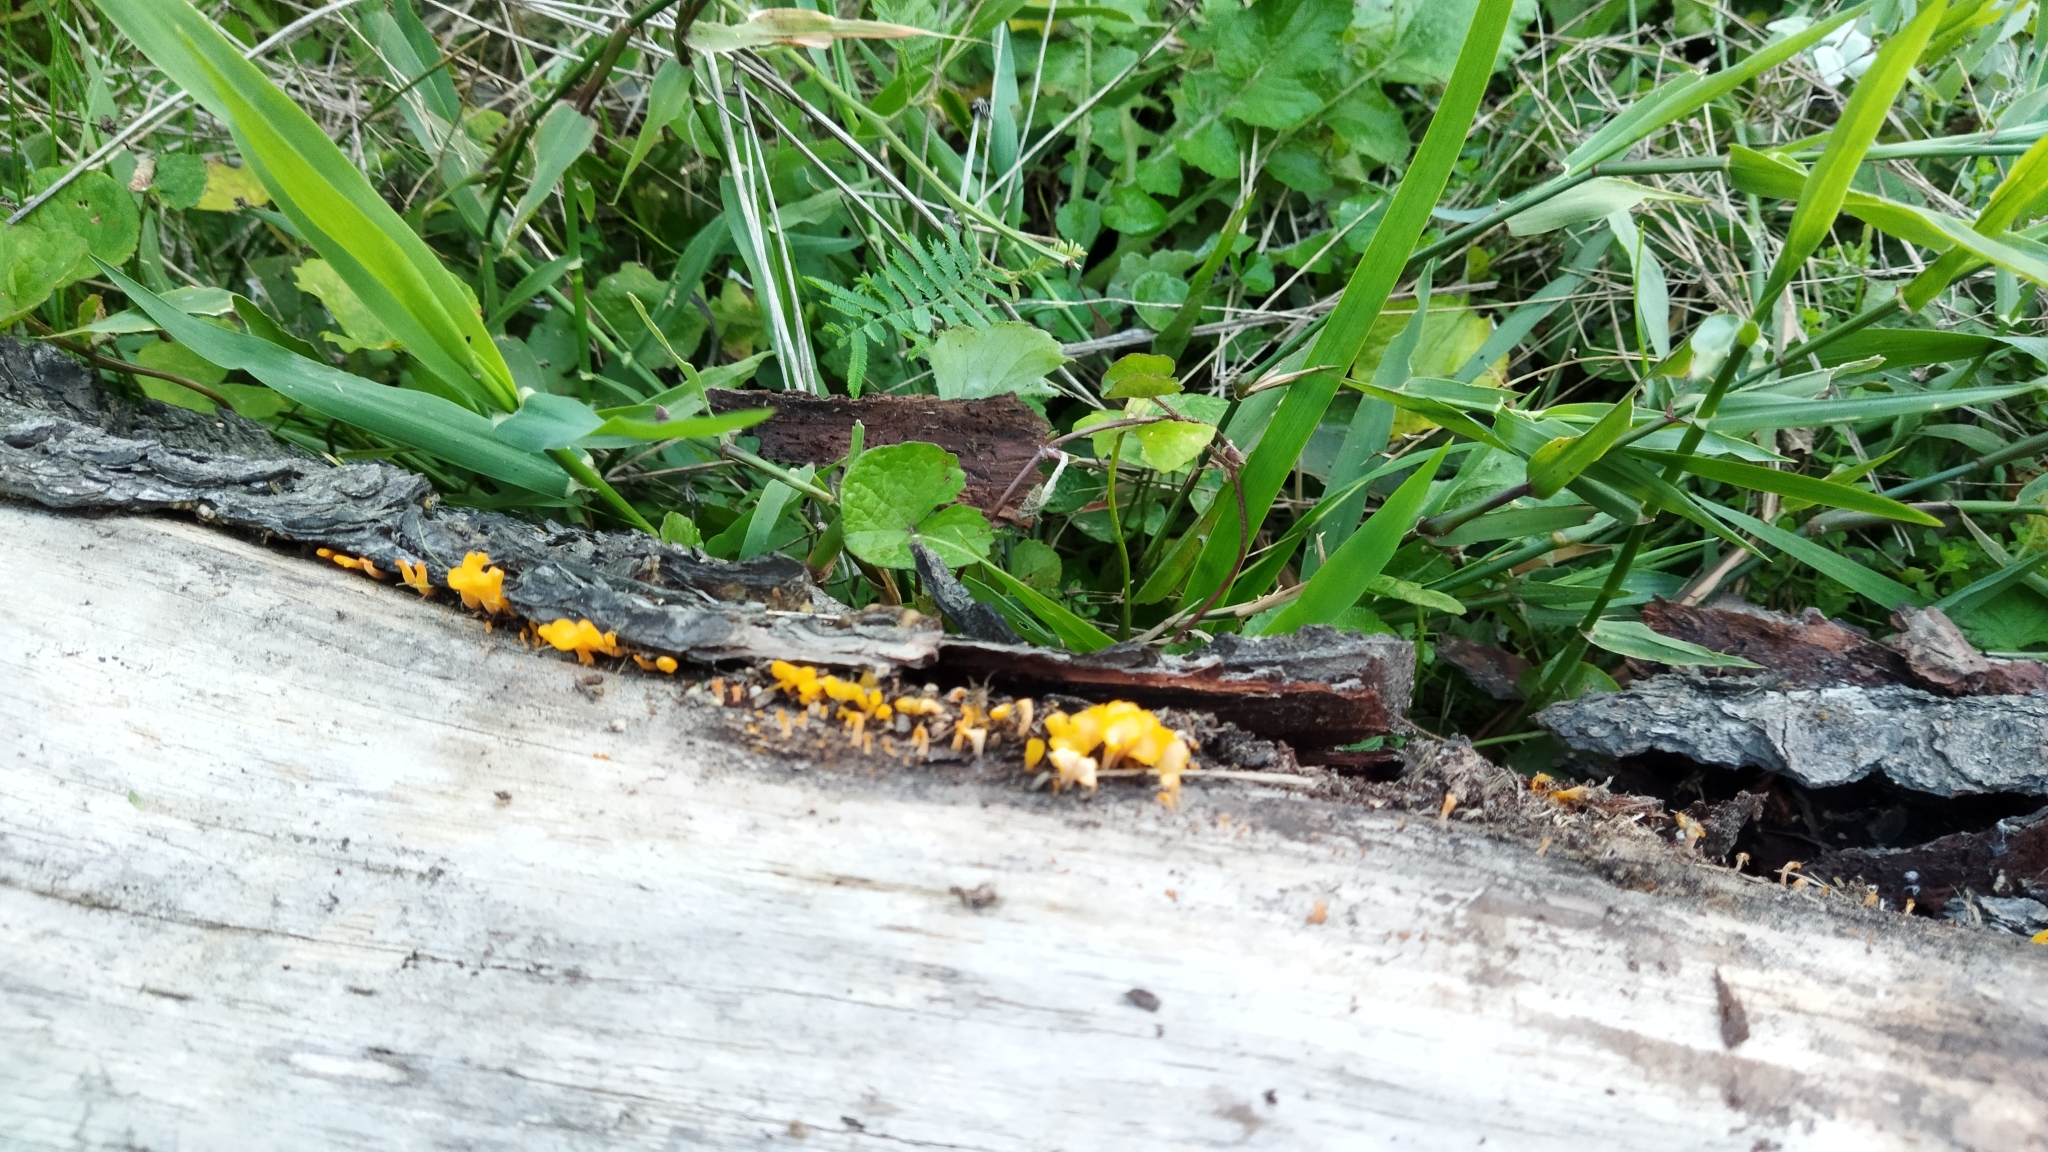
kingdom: Fungi
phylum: Basidiomycota
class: Dacrymycetes
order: Dacrymycetales
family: Dacrymycetaceae
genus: Dacrymyces
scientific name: Dacrymyces spathularius
